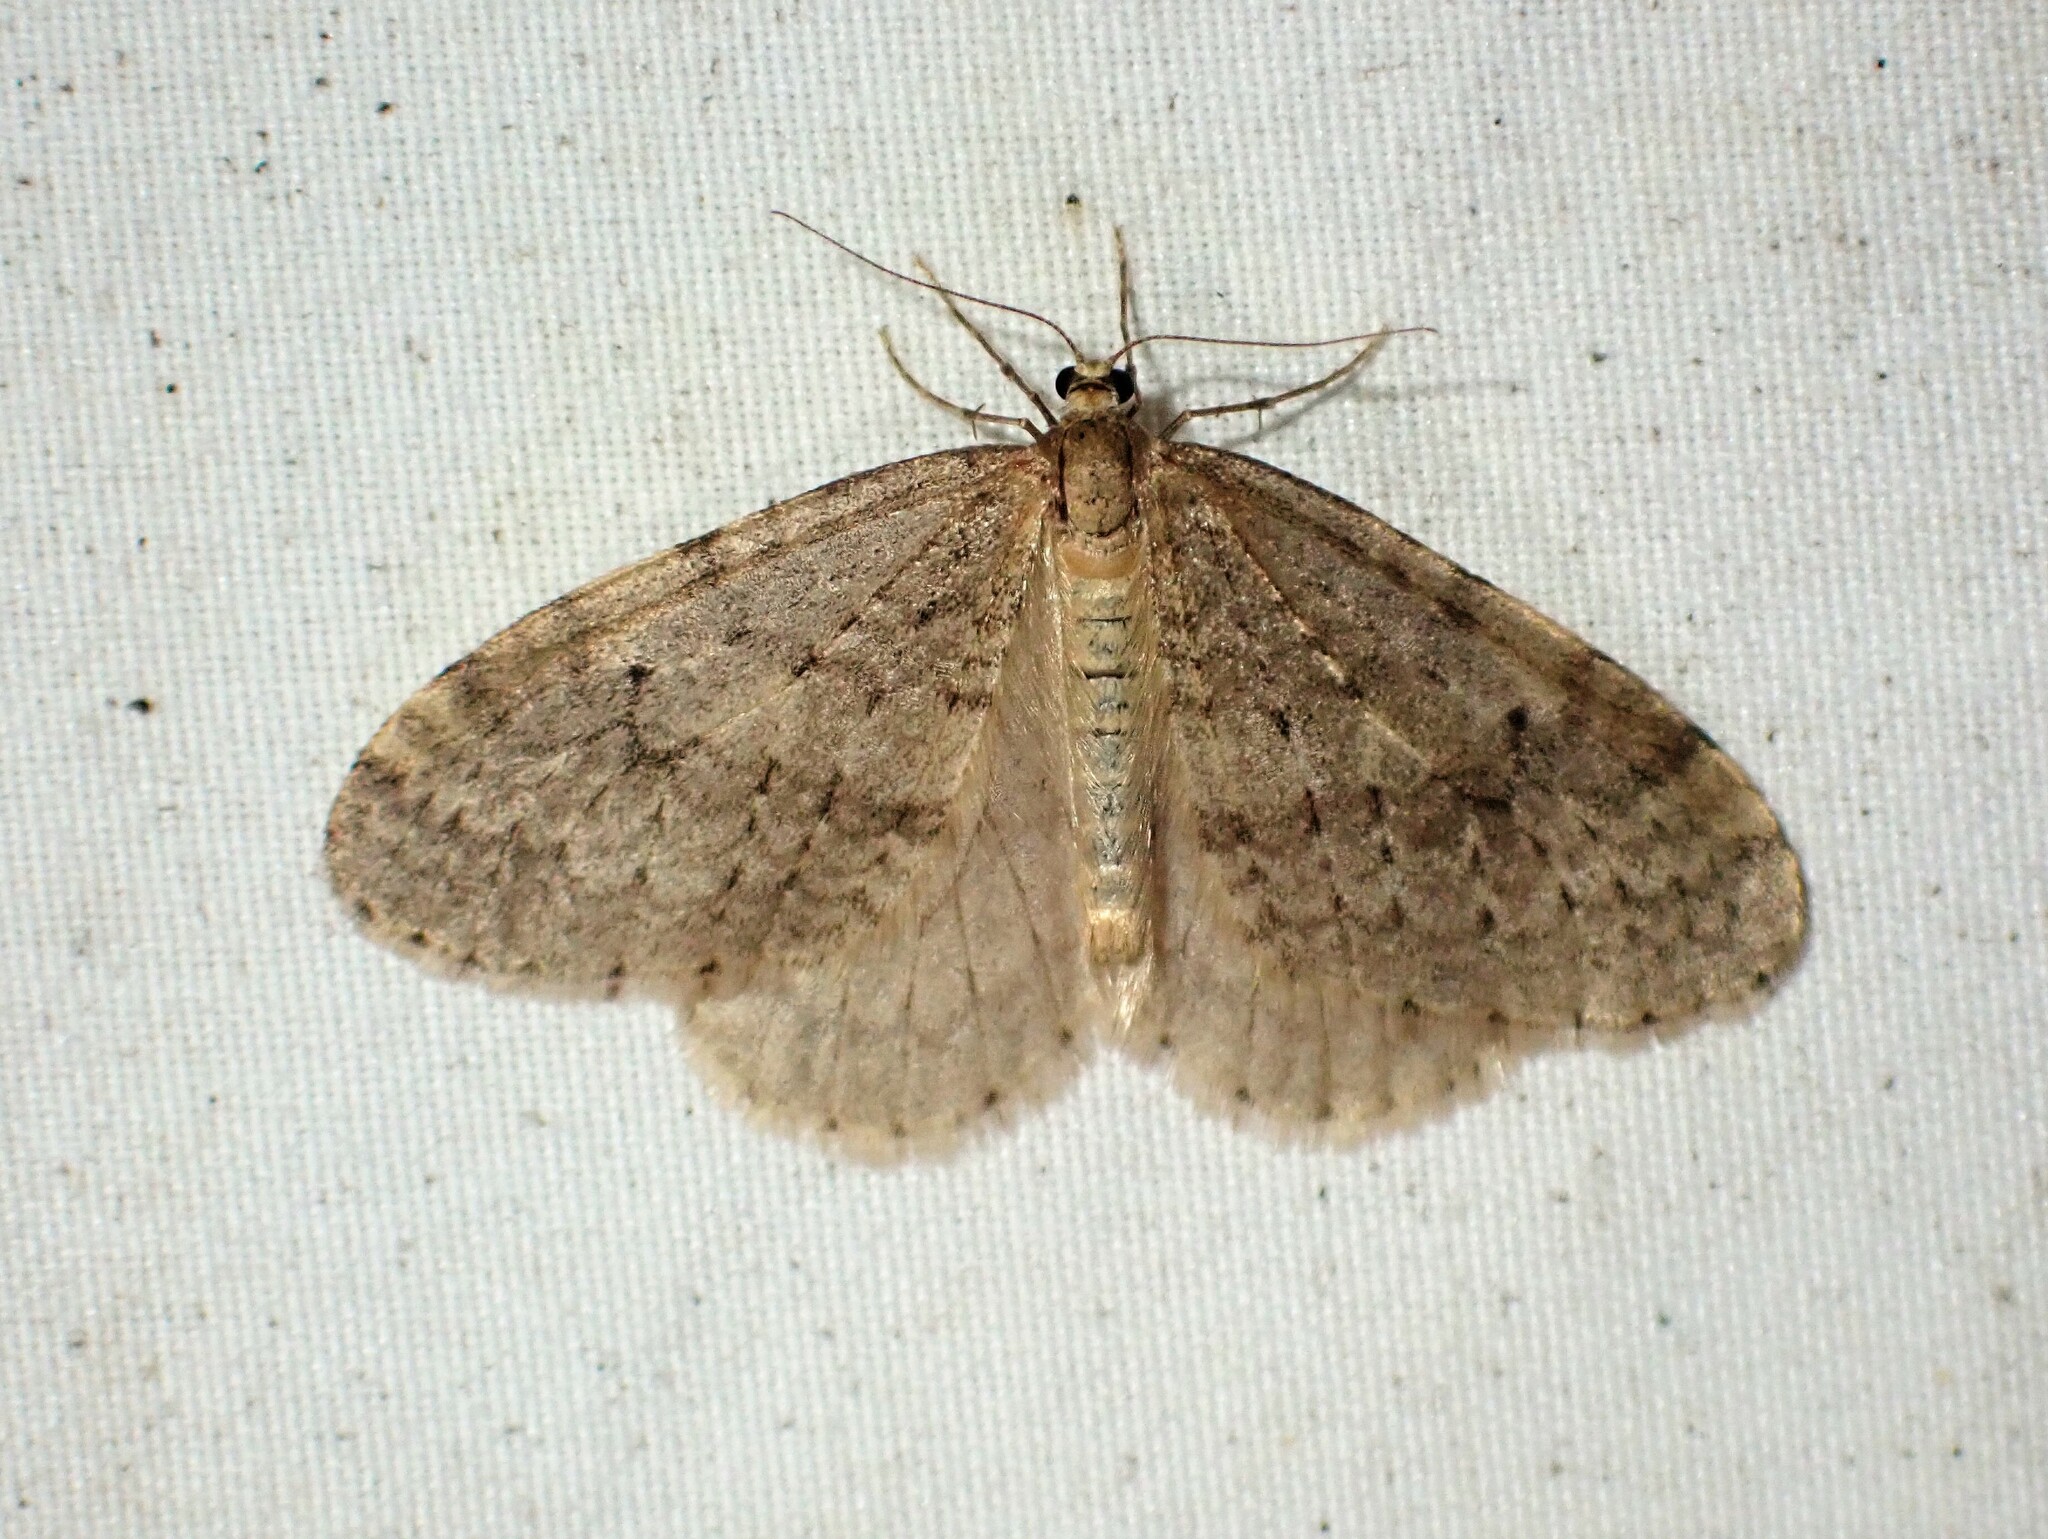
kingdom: Animalia
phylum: Arthropoda
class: Insecta
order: Lepidoptera
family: Geometridae
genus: Operophtera
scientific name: Operophtera bruceata
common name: Bruce spanworm
